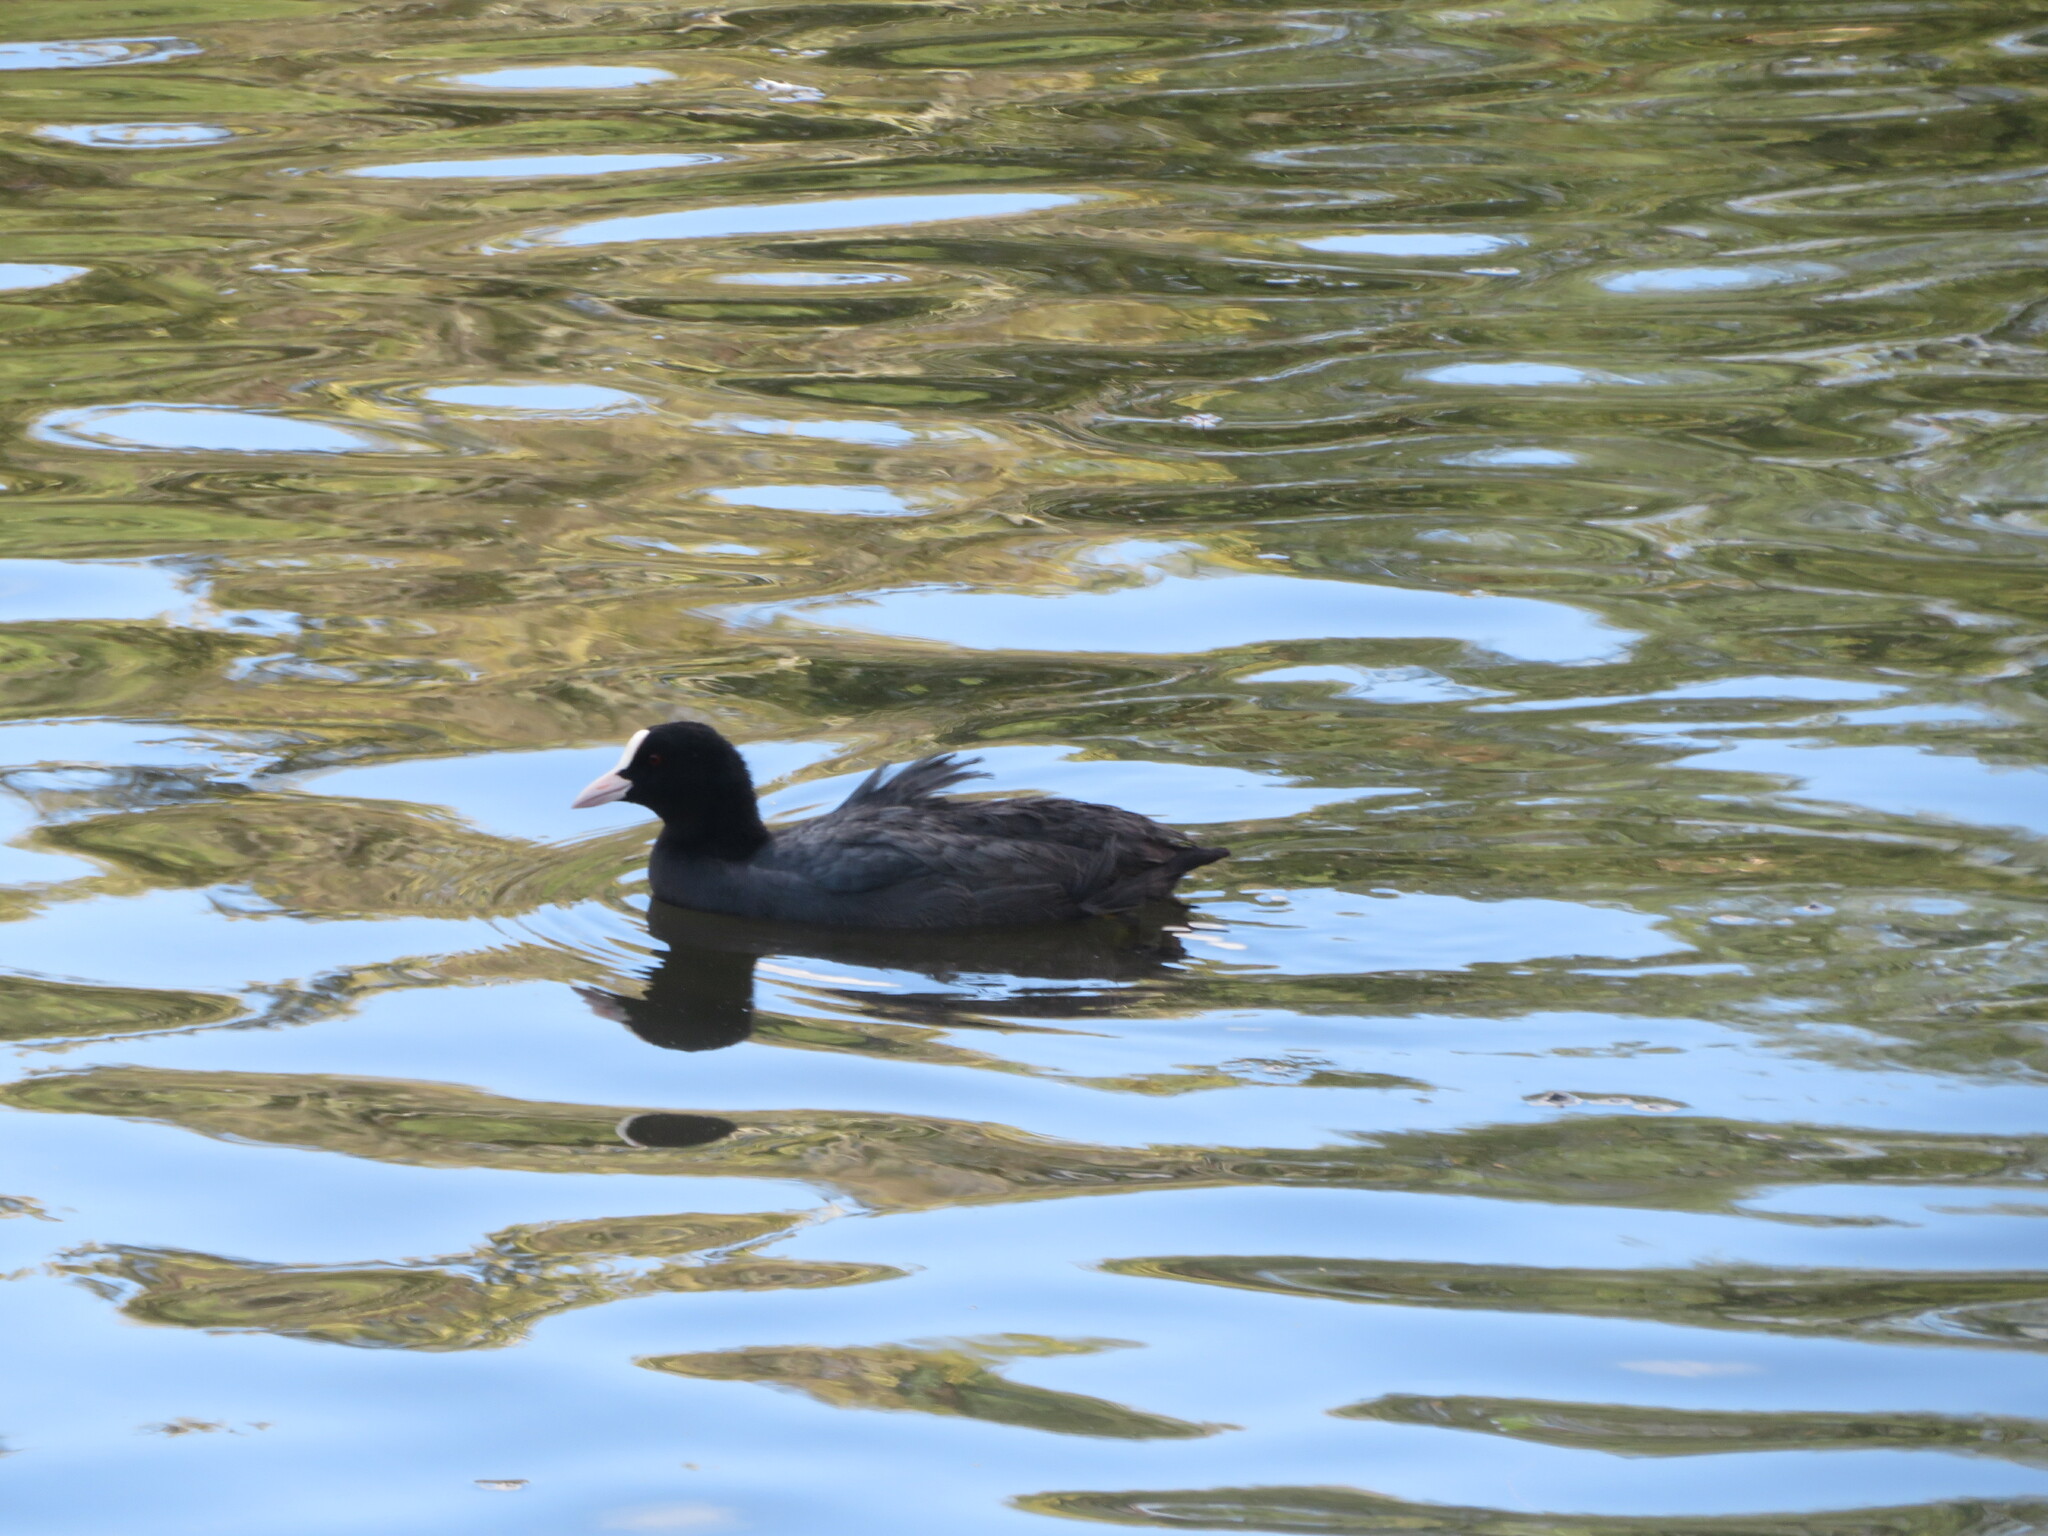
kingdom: Animalia
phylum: Chordata
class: Aves
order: Gruiformes
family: Rallidae
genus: Fulica
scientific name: Fulica atra
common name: Eurasian coot
